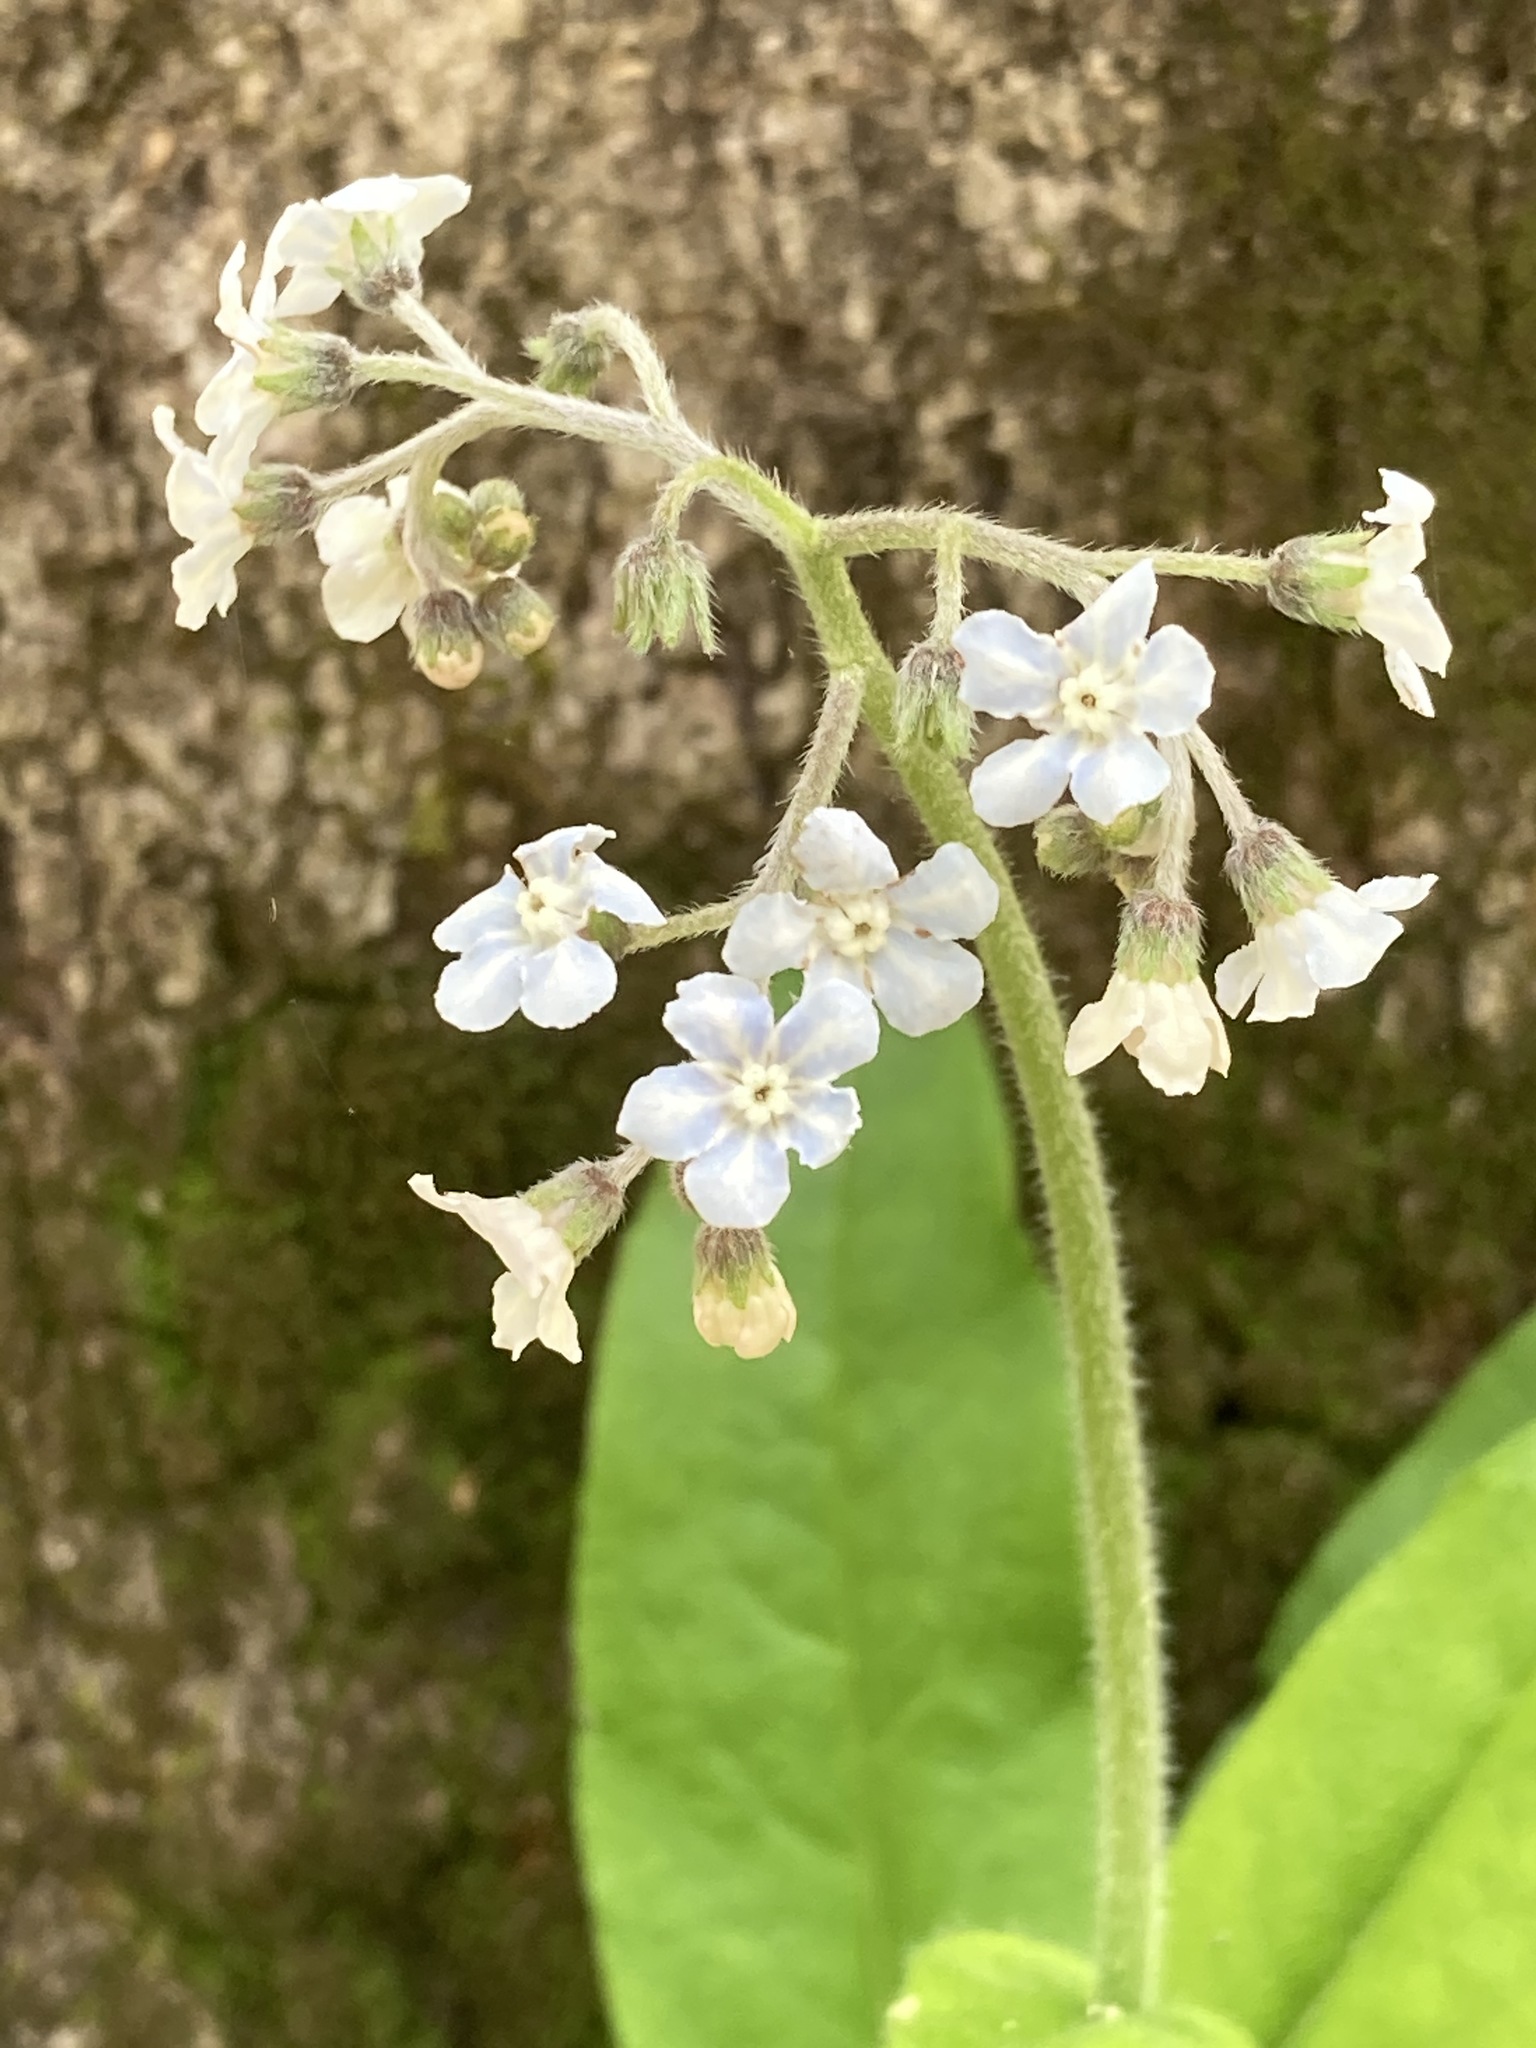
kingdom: Plantae
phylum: Tracheophyta
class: Magnoliopsida
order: Boraginales
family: Boraginaceae
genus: Andersonglossum
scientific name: Andersonglossum virginianum
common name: Wild comfrey
